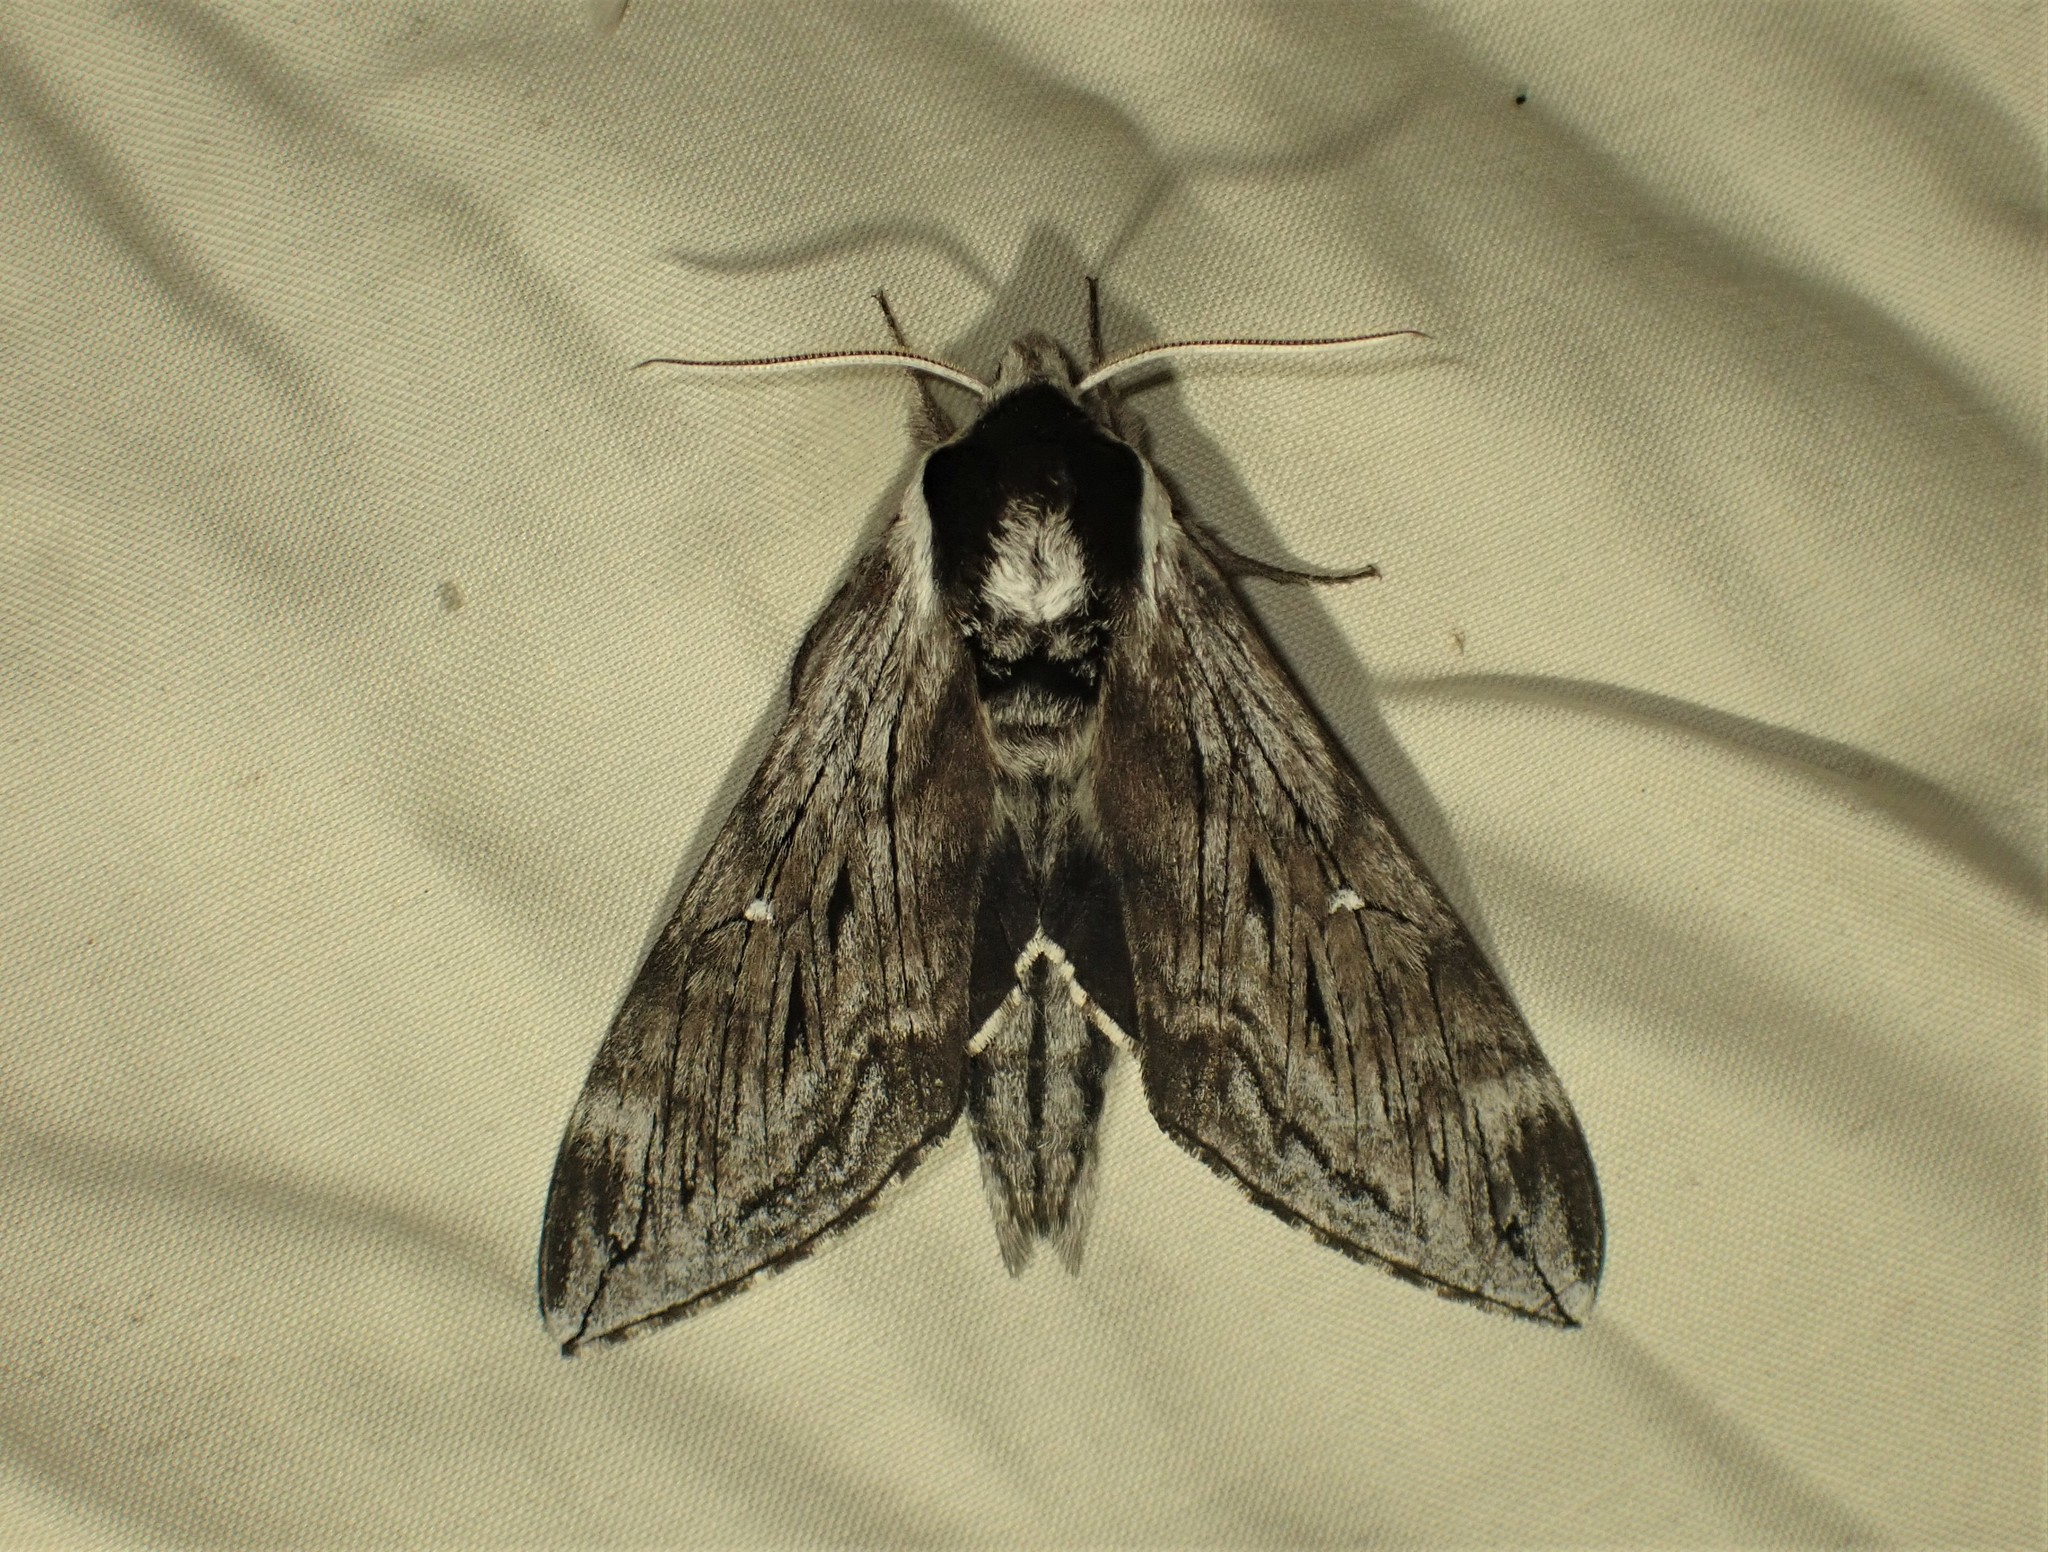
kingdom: Animalia
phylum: Arthropoda
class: Insecta
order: Lepidoptera
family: Sphingidae
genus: Sphinx
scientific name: Sphinx poecila
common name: Northern apple sphinx
